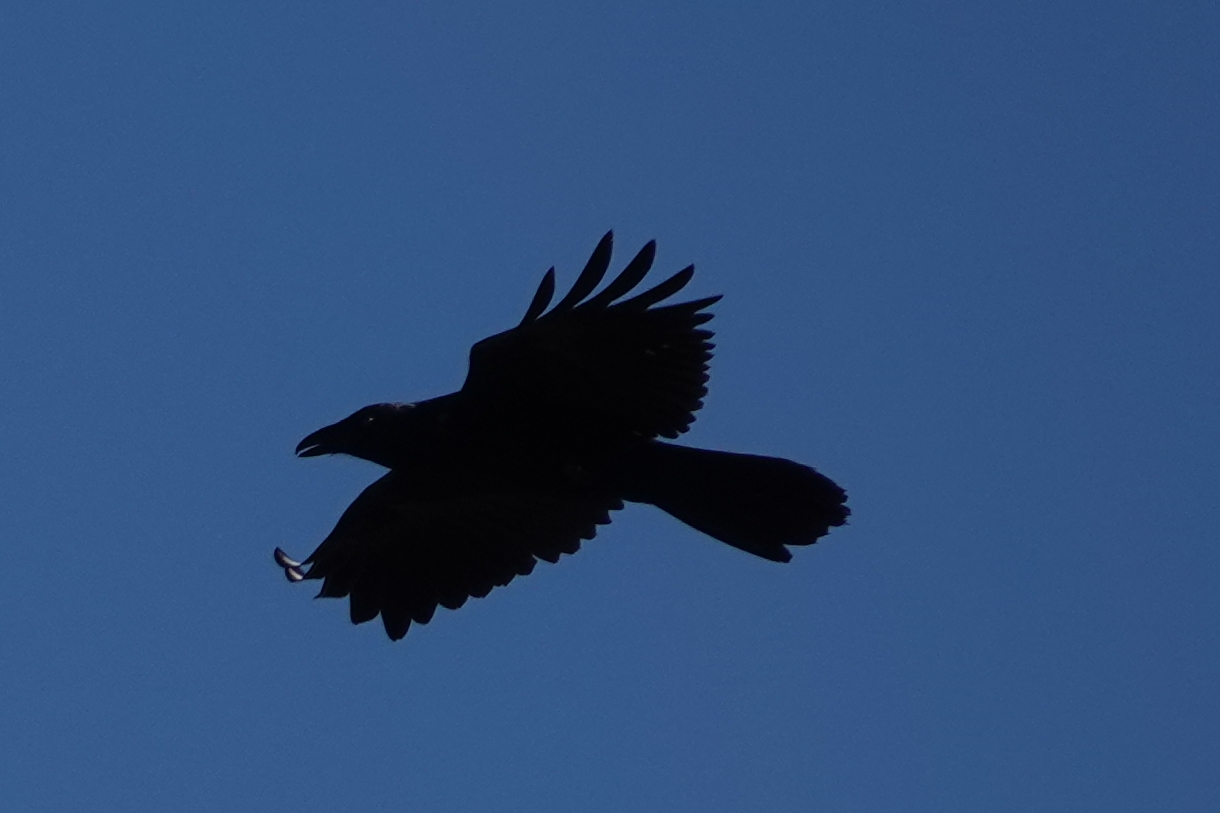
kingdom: Animalia
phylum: Chordata
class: Aves
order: Passeriformes
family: Corvidae
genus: Corvus
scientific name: Corvus corax
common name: Common raven
